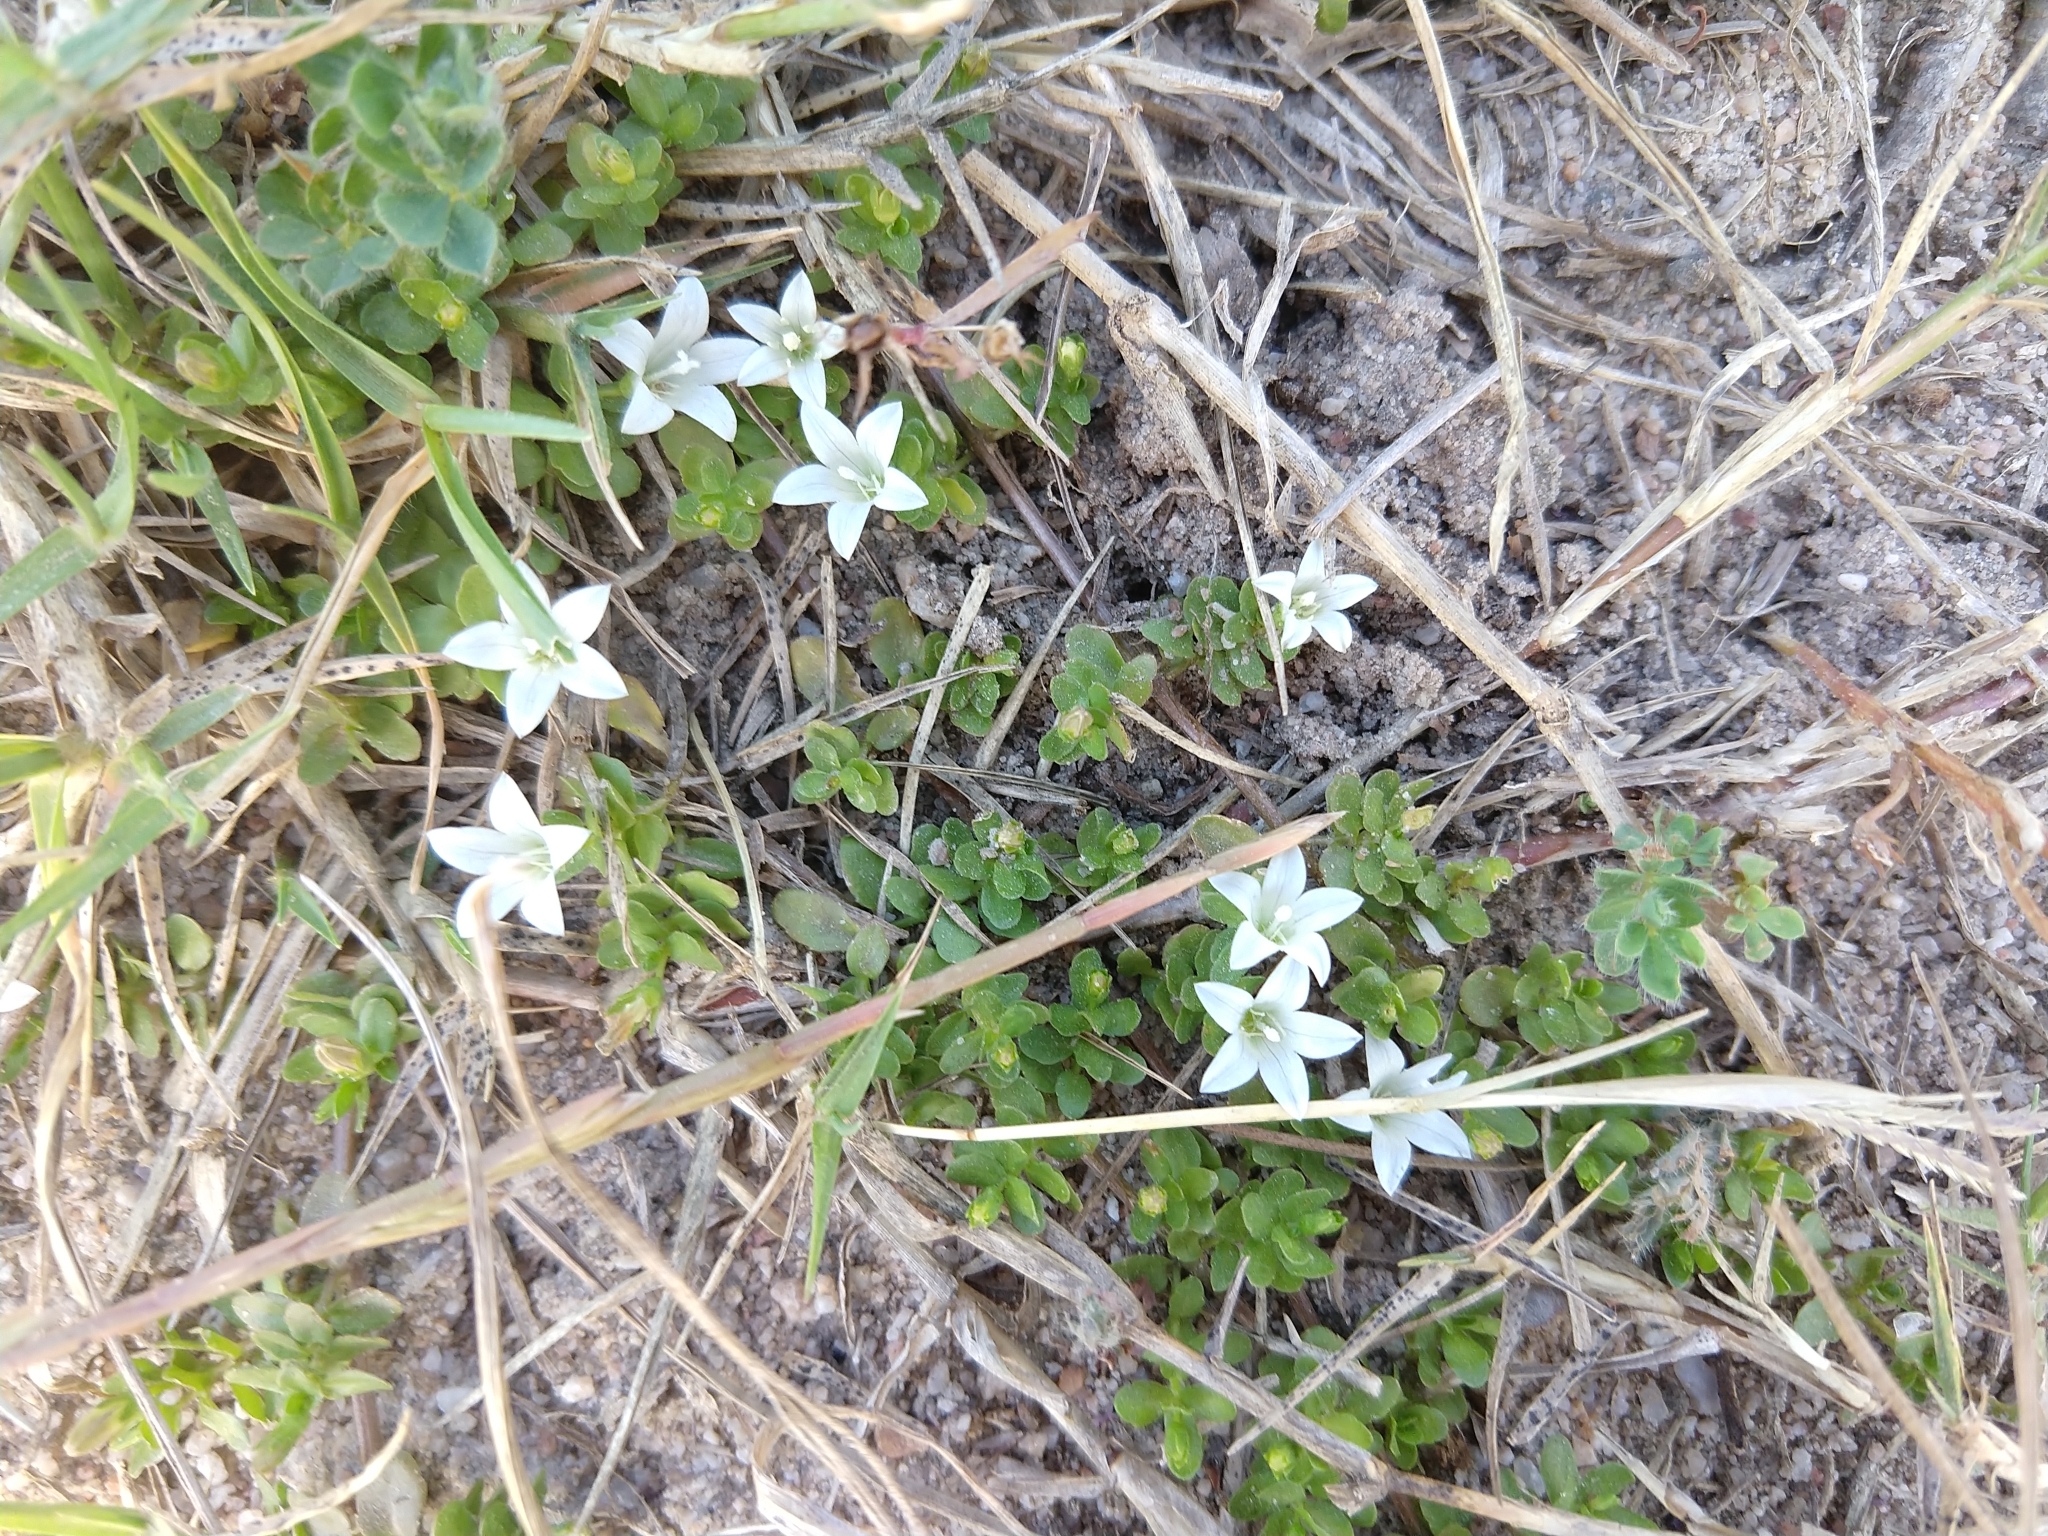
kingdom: Plantae
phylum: Tracheophyta
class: Magnoliopsida
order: Asterales
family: Campanulaceae
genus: Wahlenbergia
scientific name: Wahlenbergia procumbens
